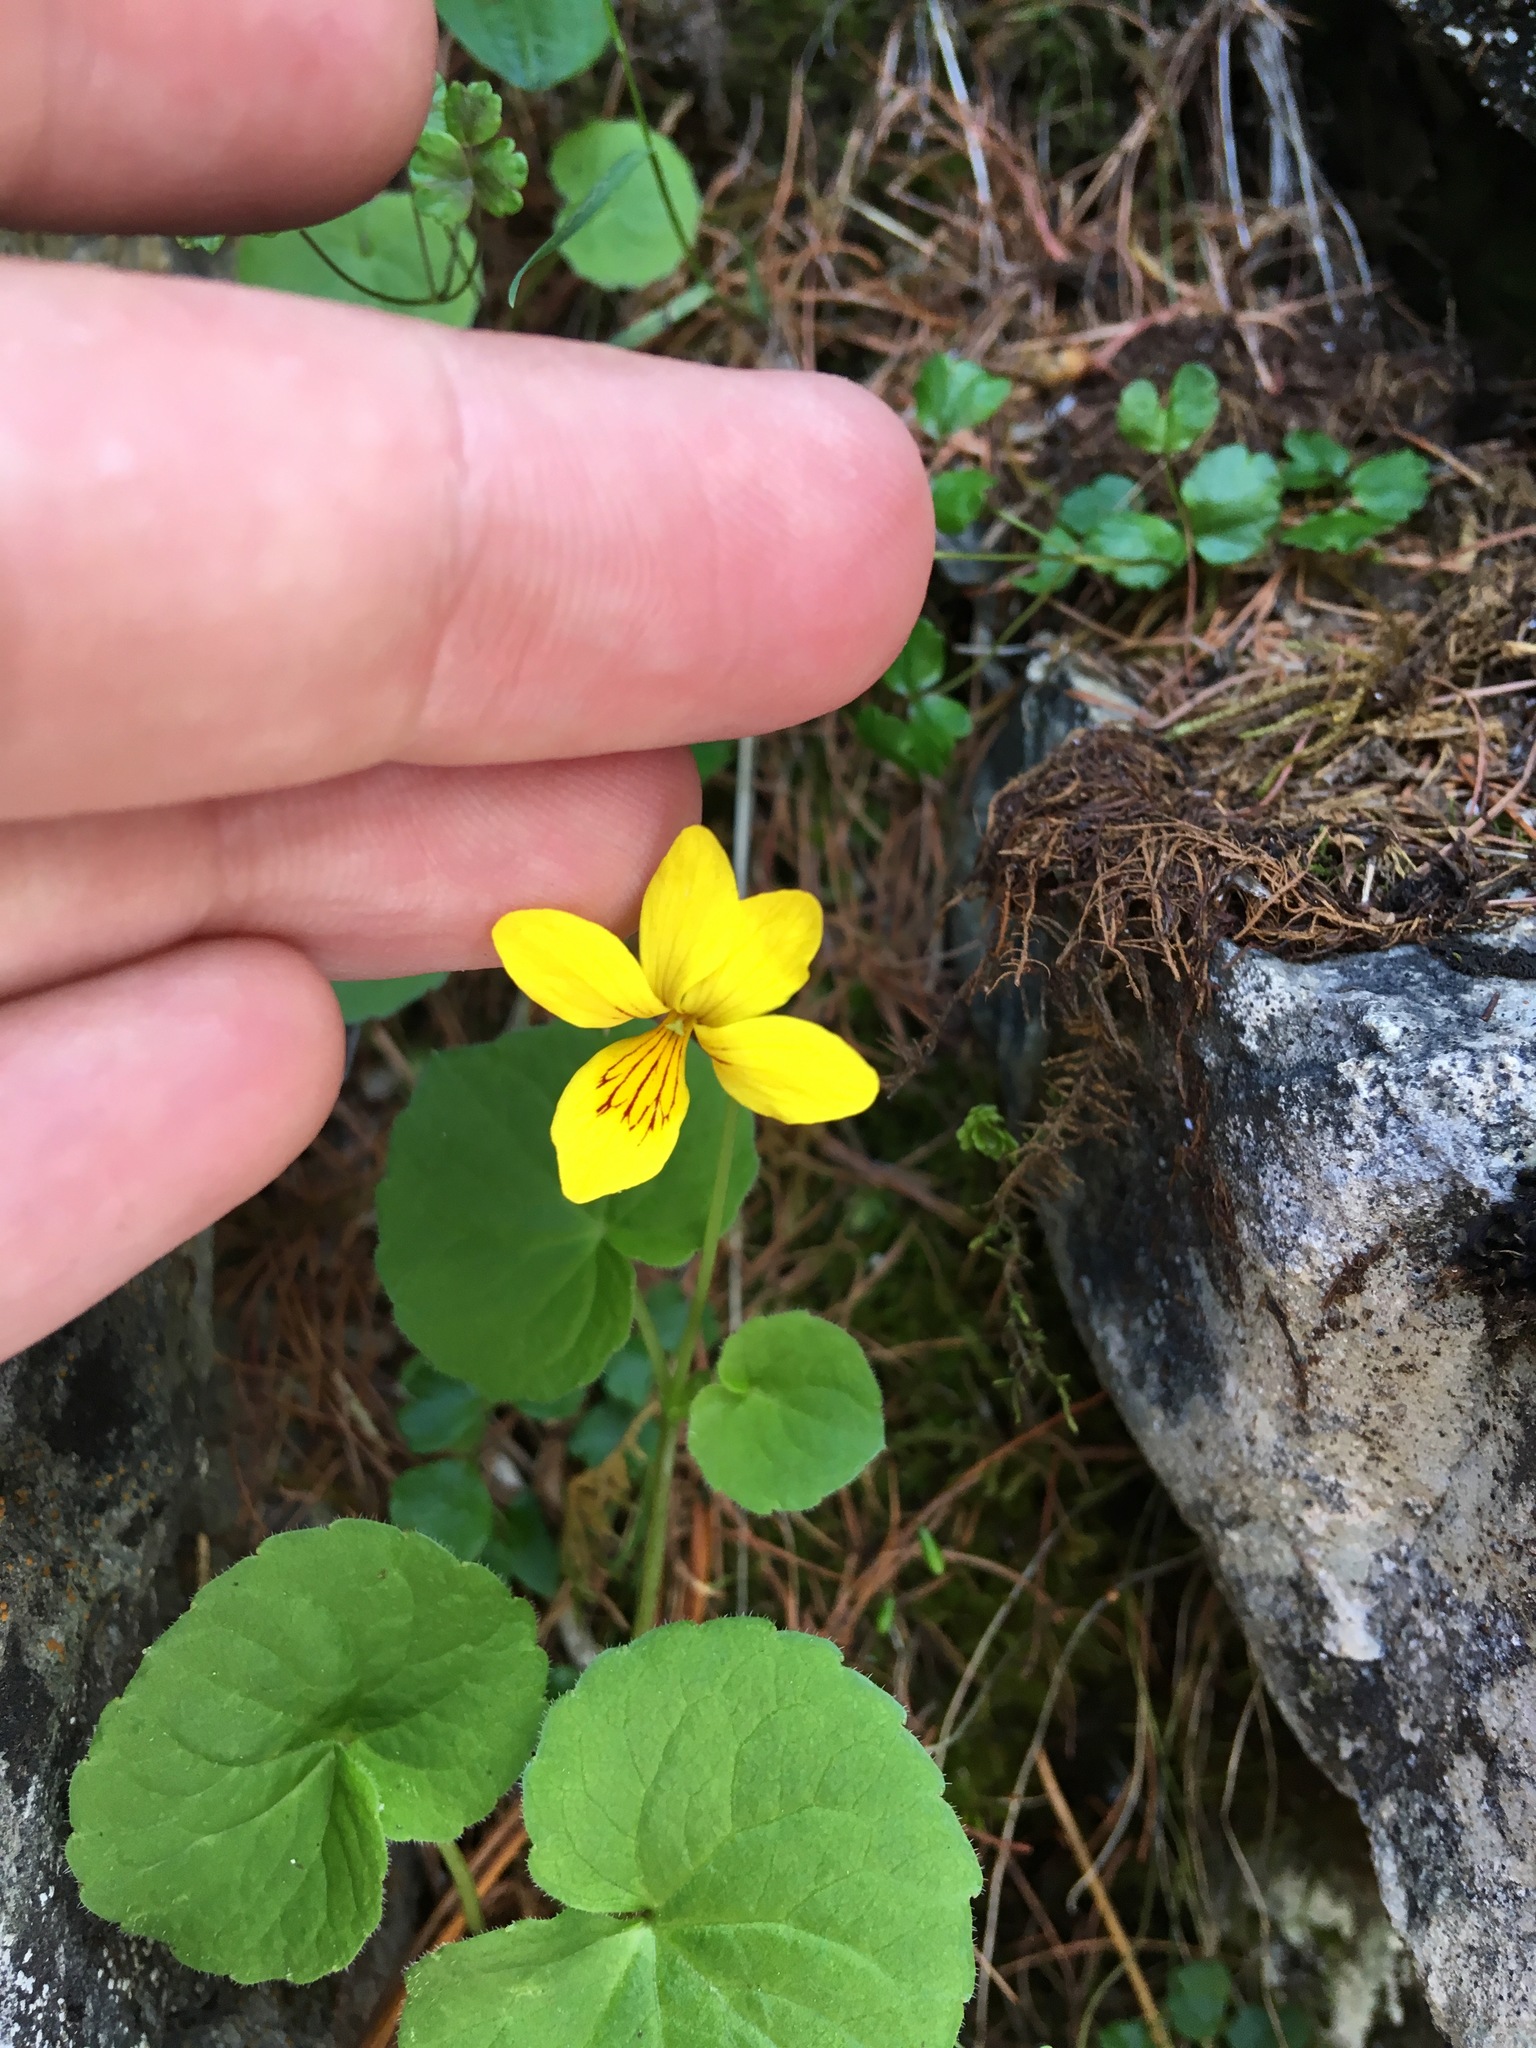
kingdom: Plantae
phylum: Tracheophyta
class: Magnoliopsida
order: Malpighiales
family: Violaceae
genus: Viola
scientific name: Viola biflora
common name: Alpine yellow violet
